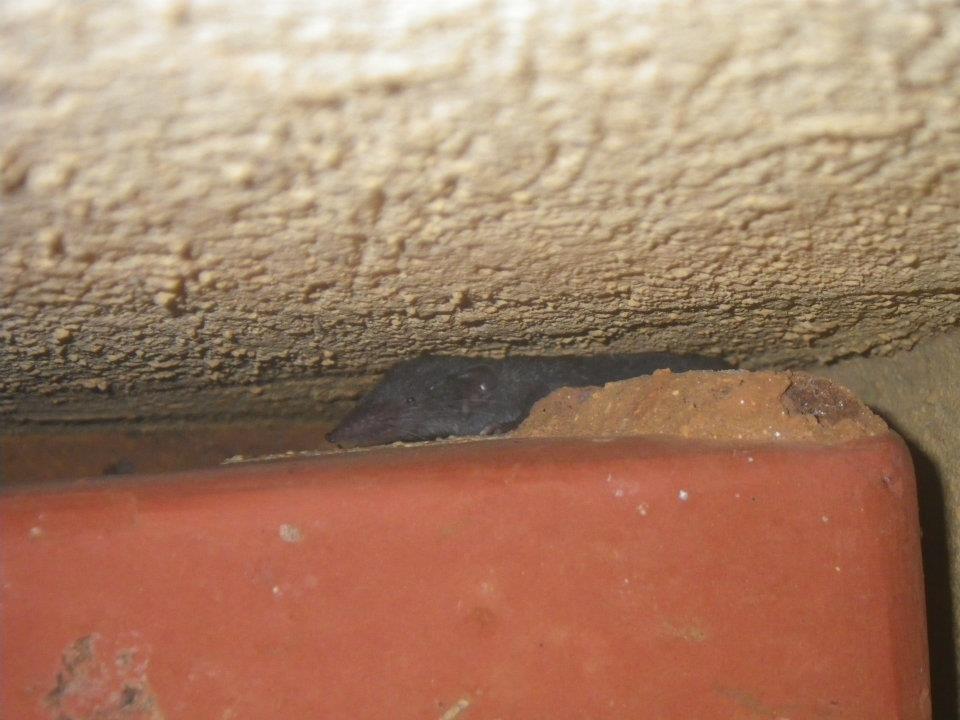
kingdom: Animalia
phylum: Chordata
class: Mammalia
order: Soricomorpha
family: Soricidae
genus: Suncus
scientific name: Suncus murinus
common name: Asian house shrew
